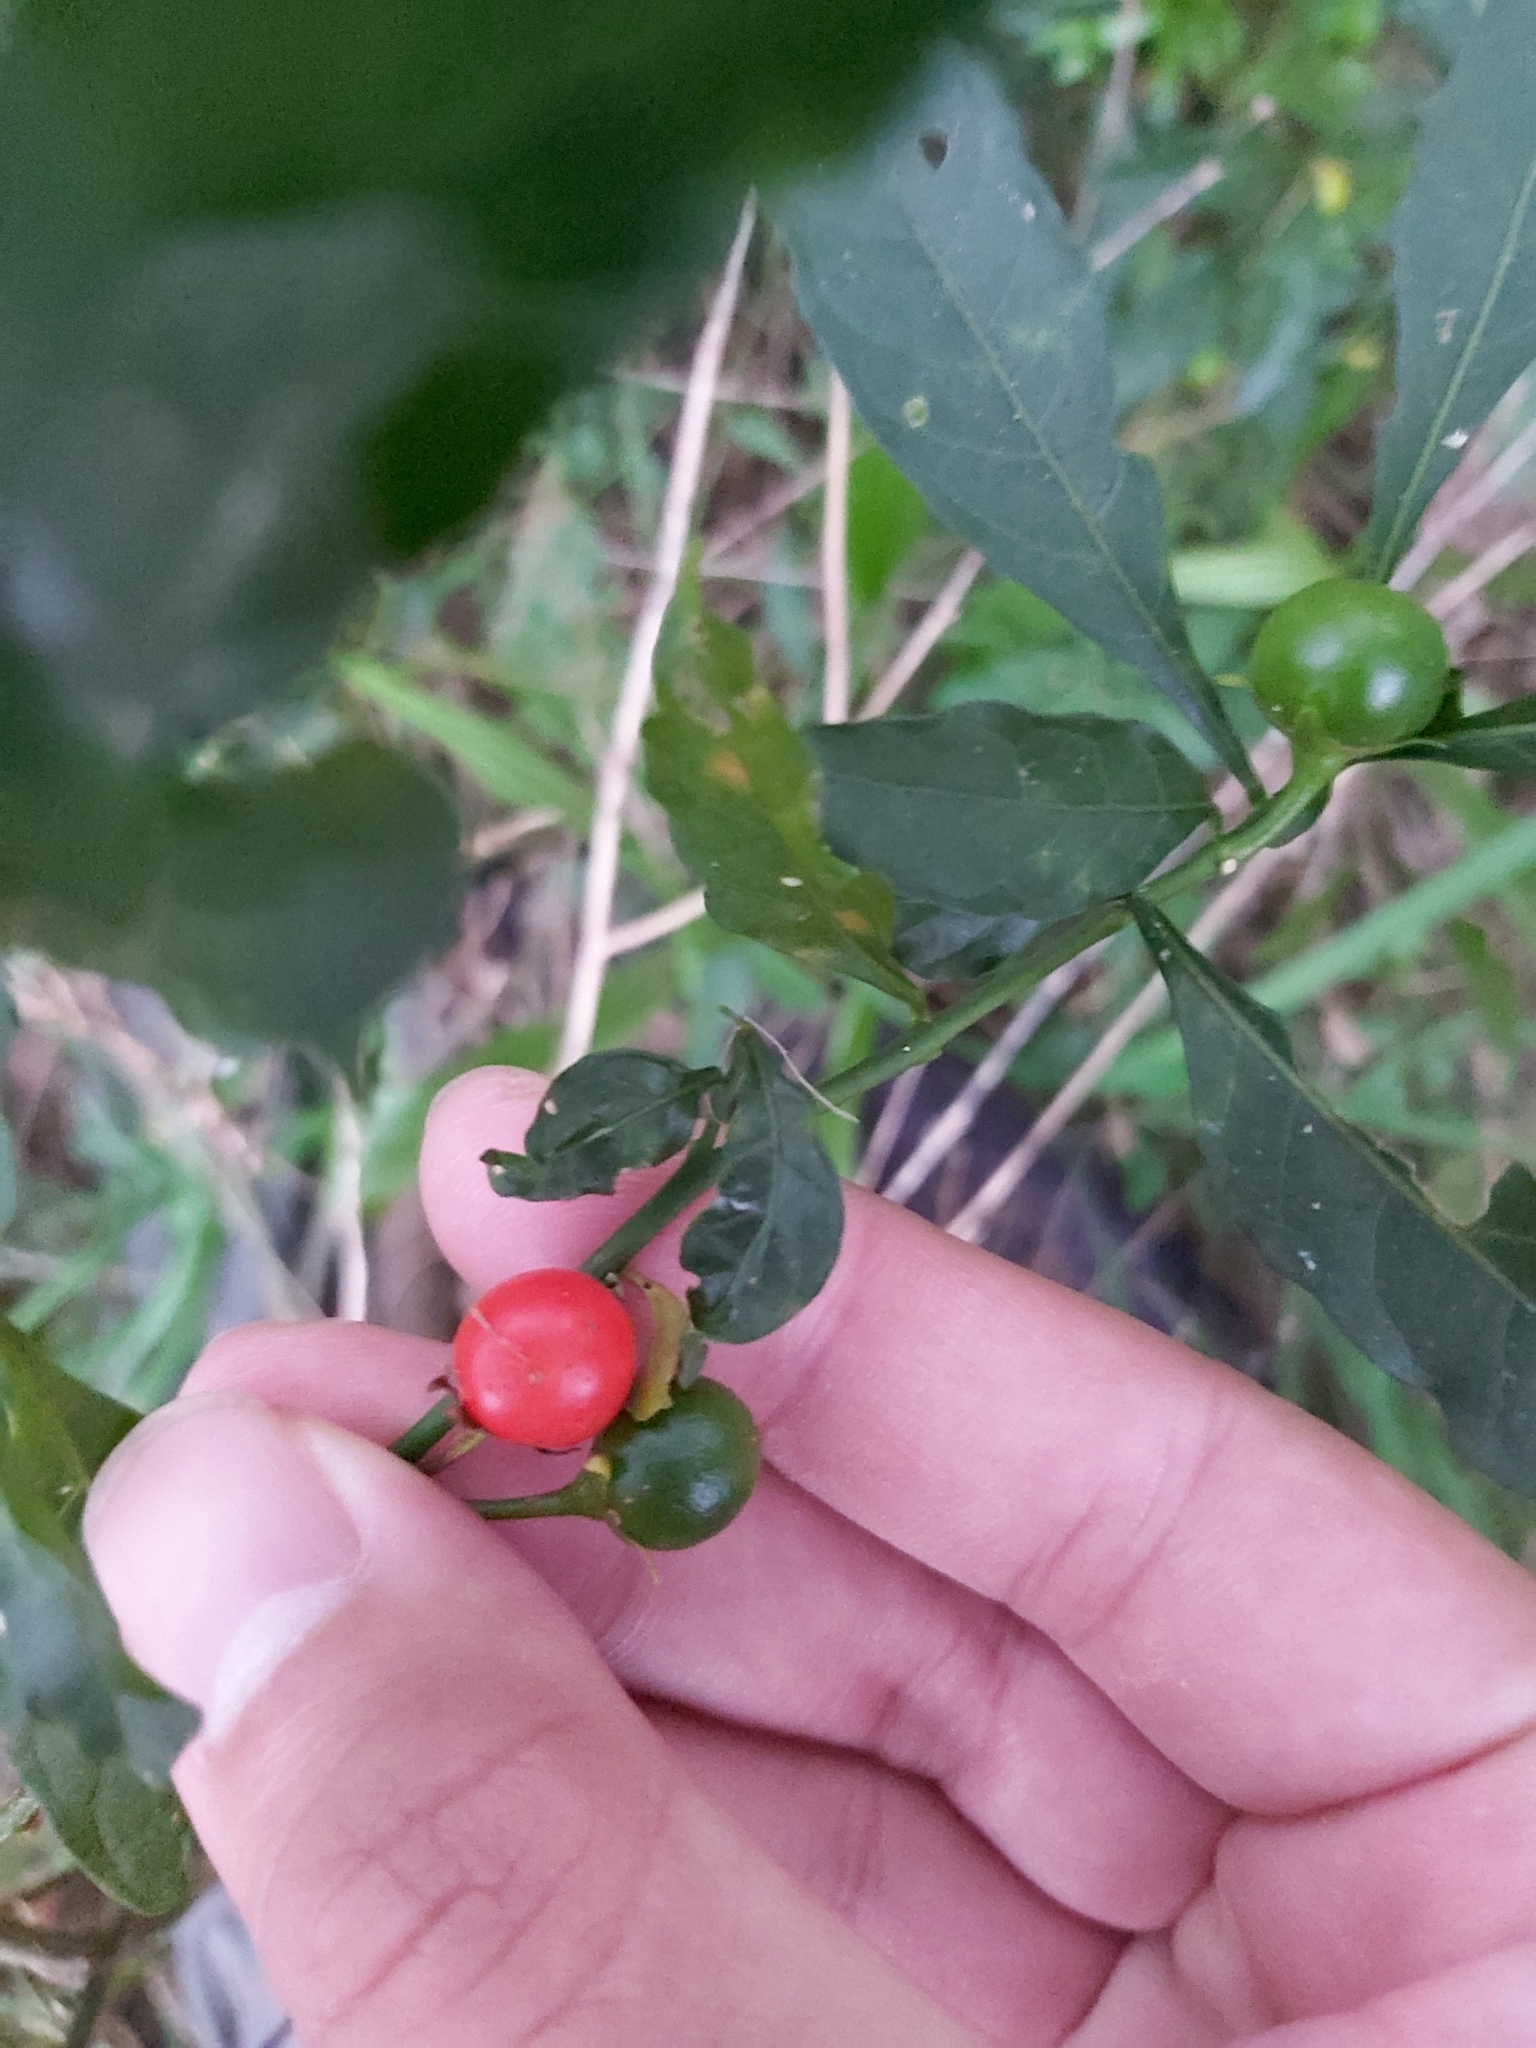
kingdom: Plantae
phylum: Tracheophyta
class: Magnoliopsida
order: Solanales
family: Solanaceae
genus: Solanum
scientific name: Solanum pseudocapsicum
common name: Jerusalem cherry
